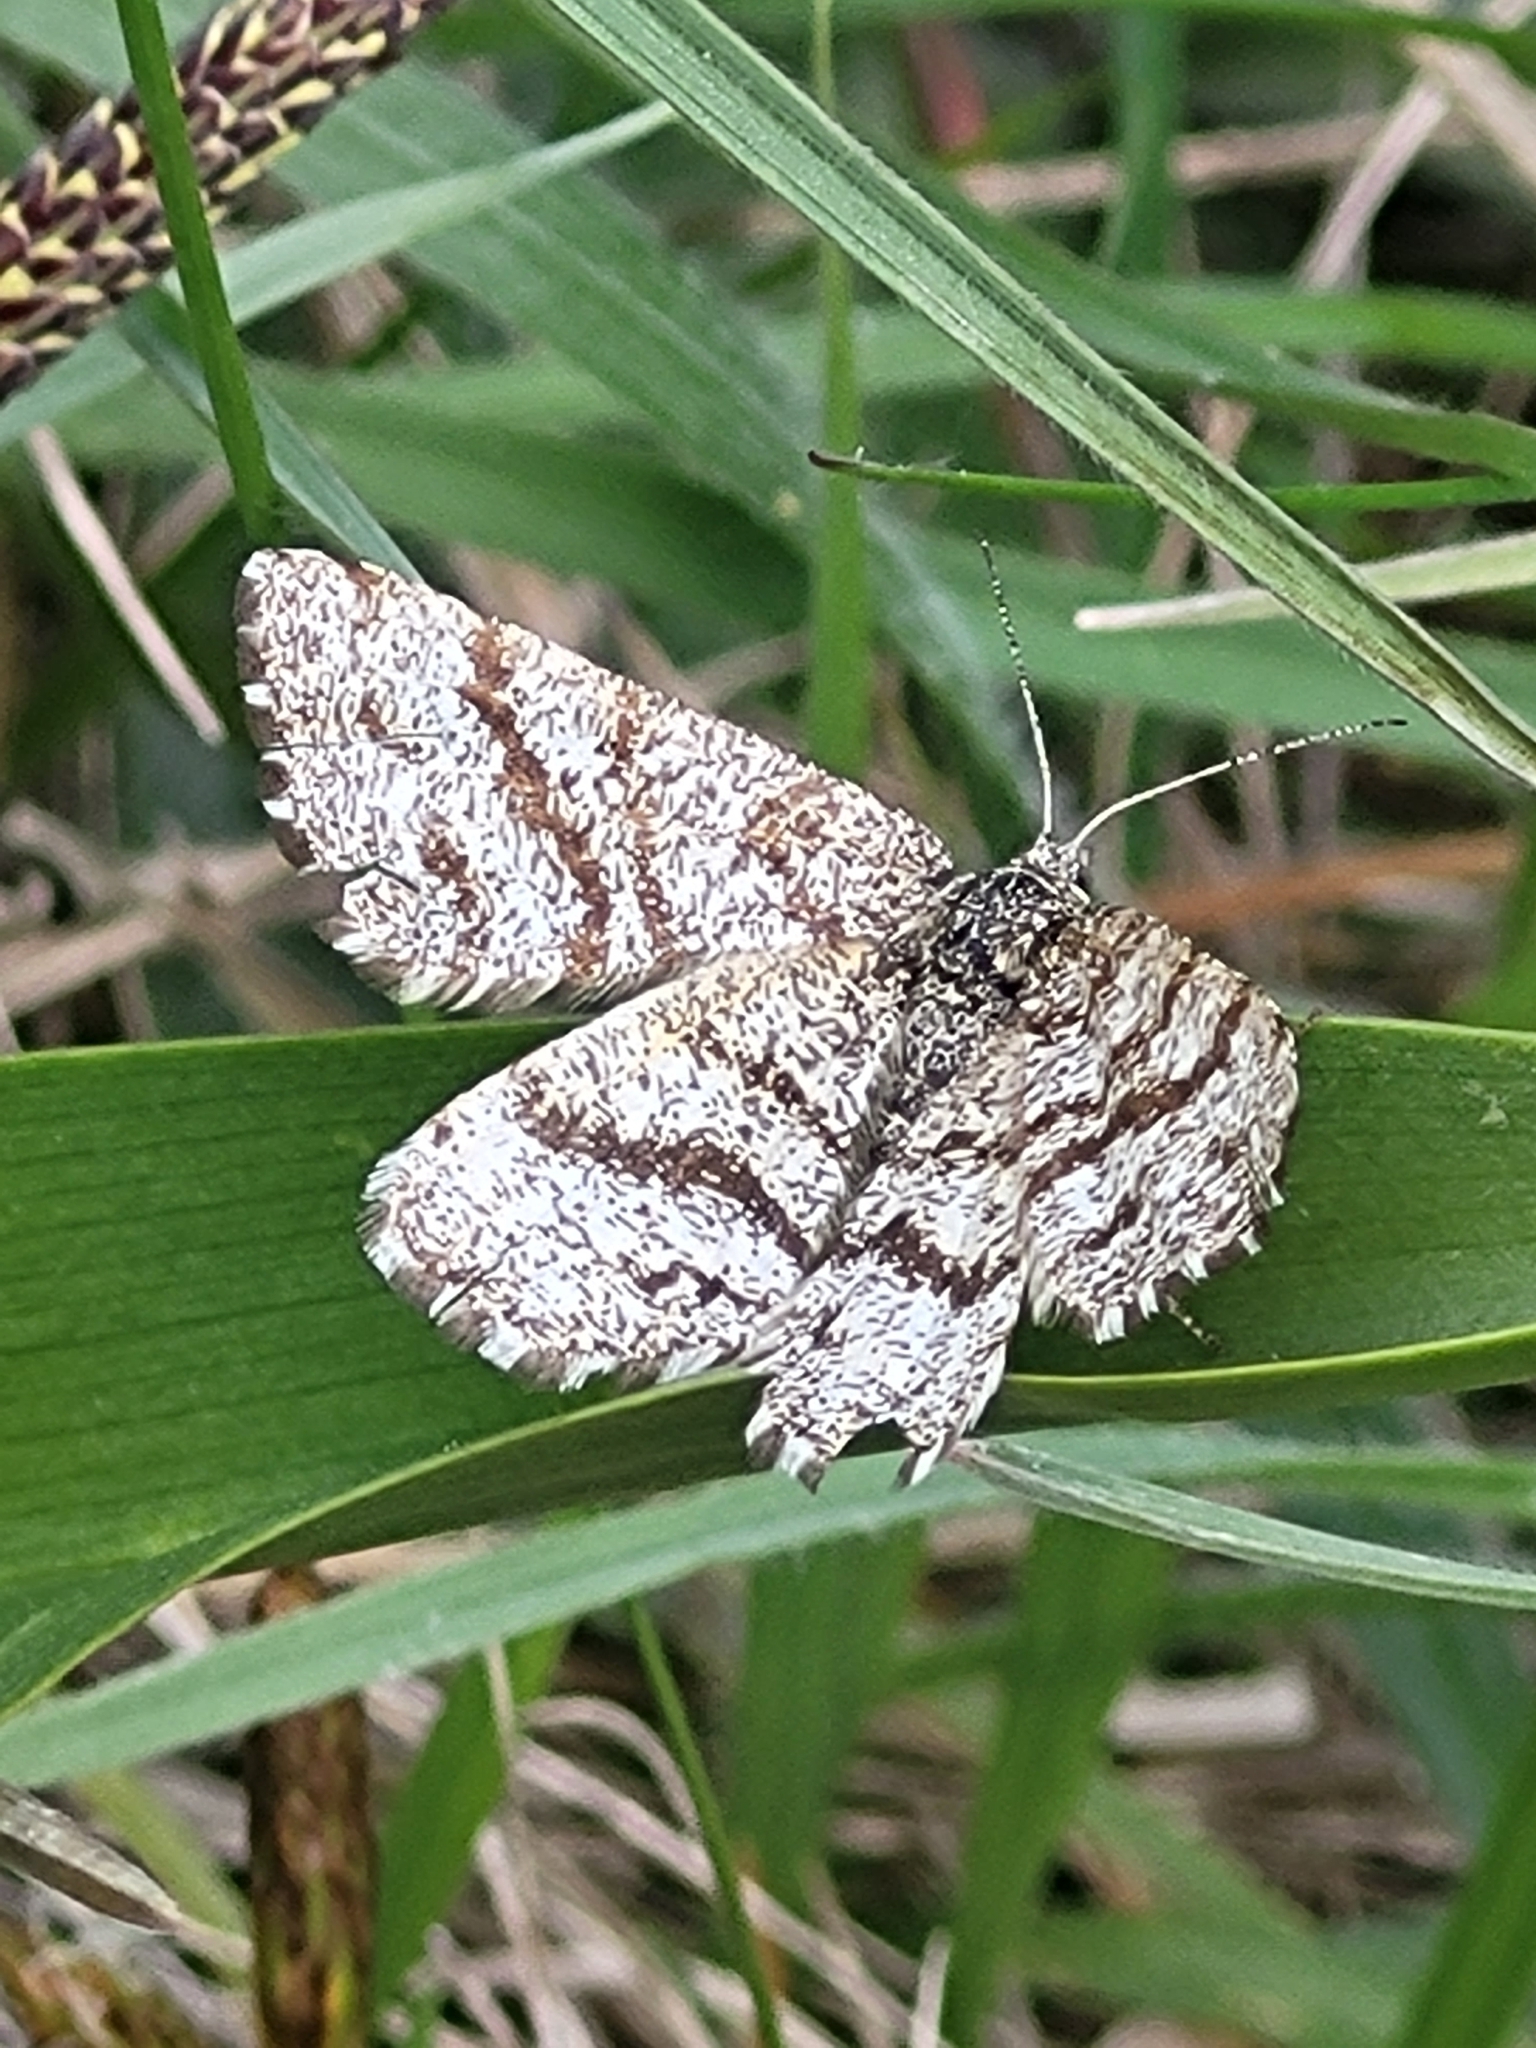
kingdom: Animalia
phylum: Arthropoda
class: Insecta
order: Lepidoptera
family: Geometridae
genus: Ematurga
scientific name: Ematurga atomaria
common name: Common heath
